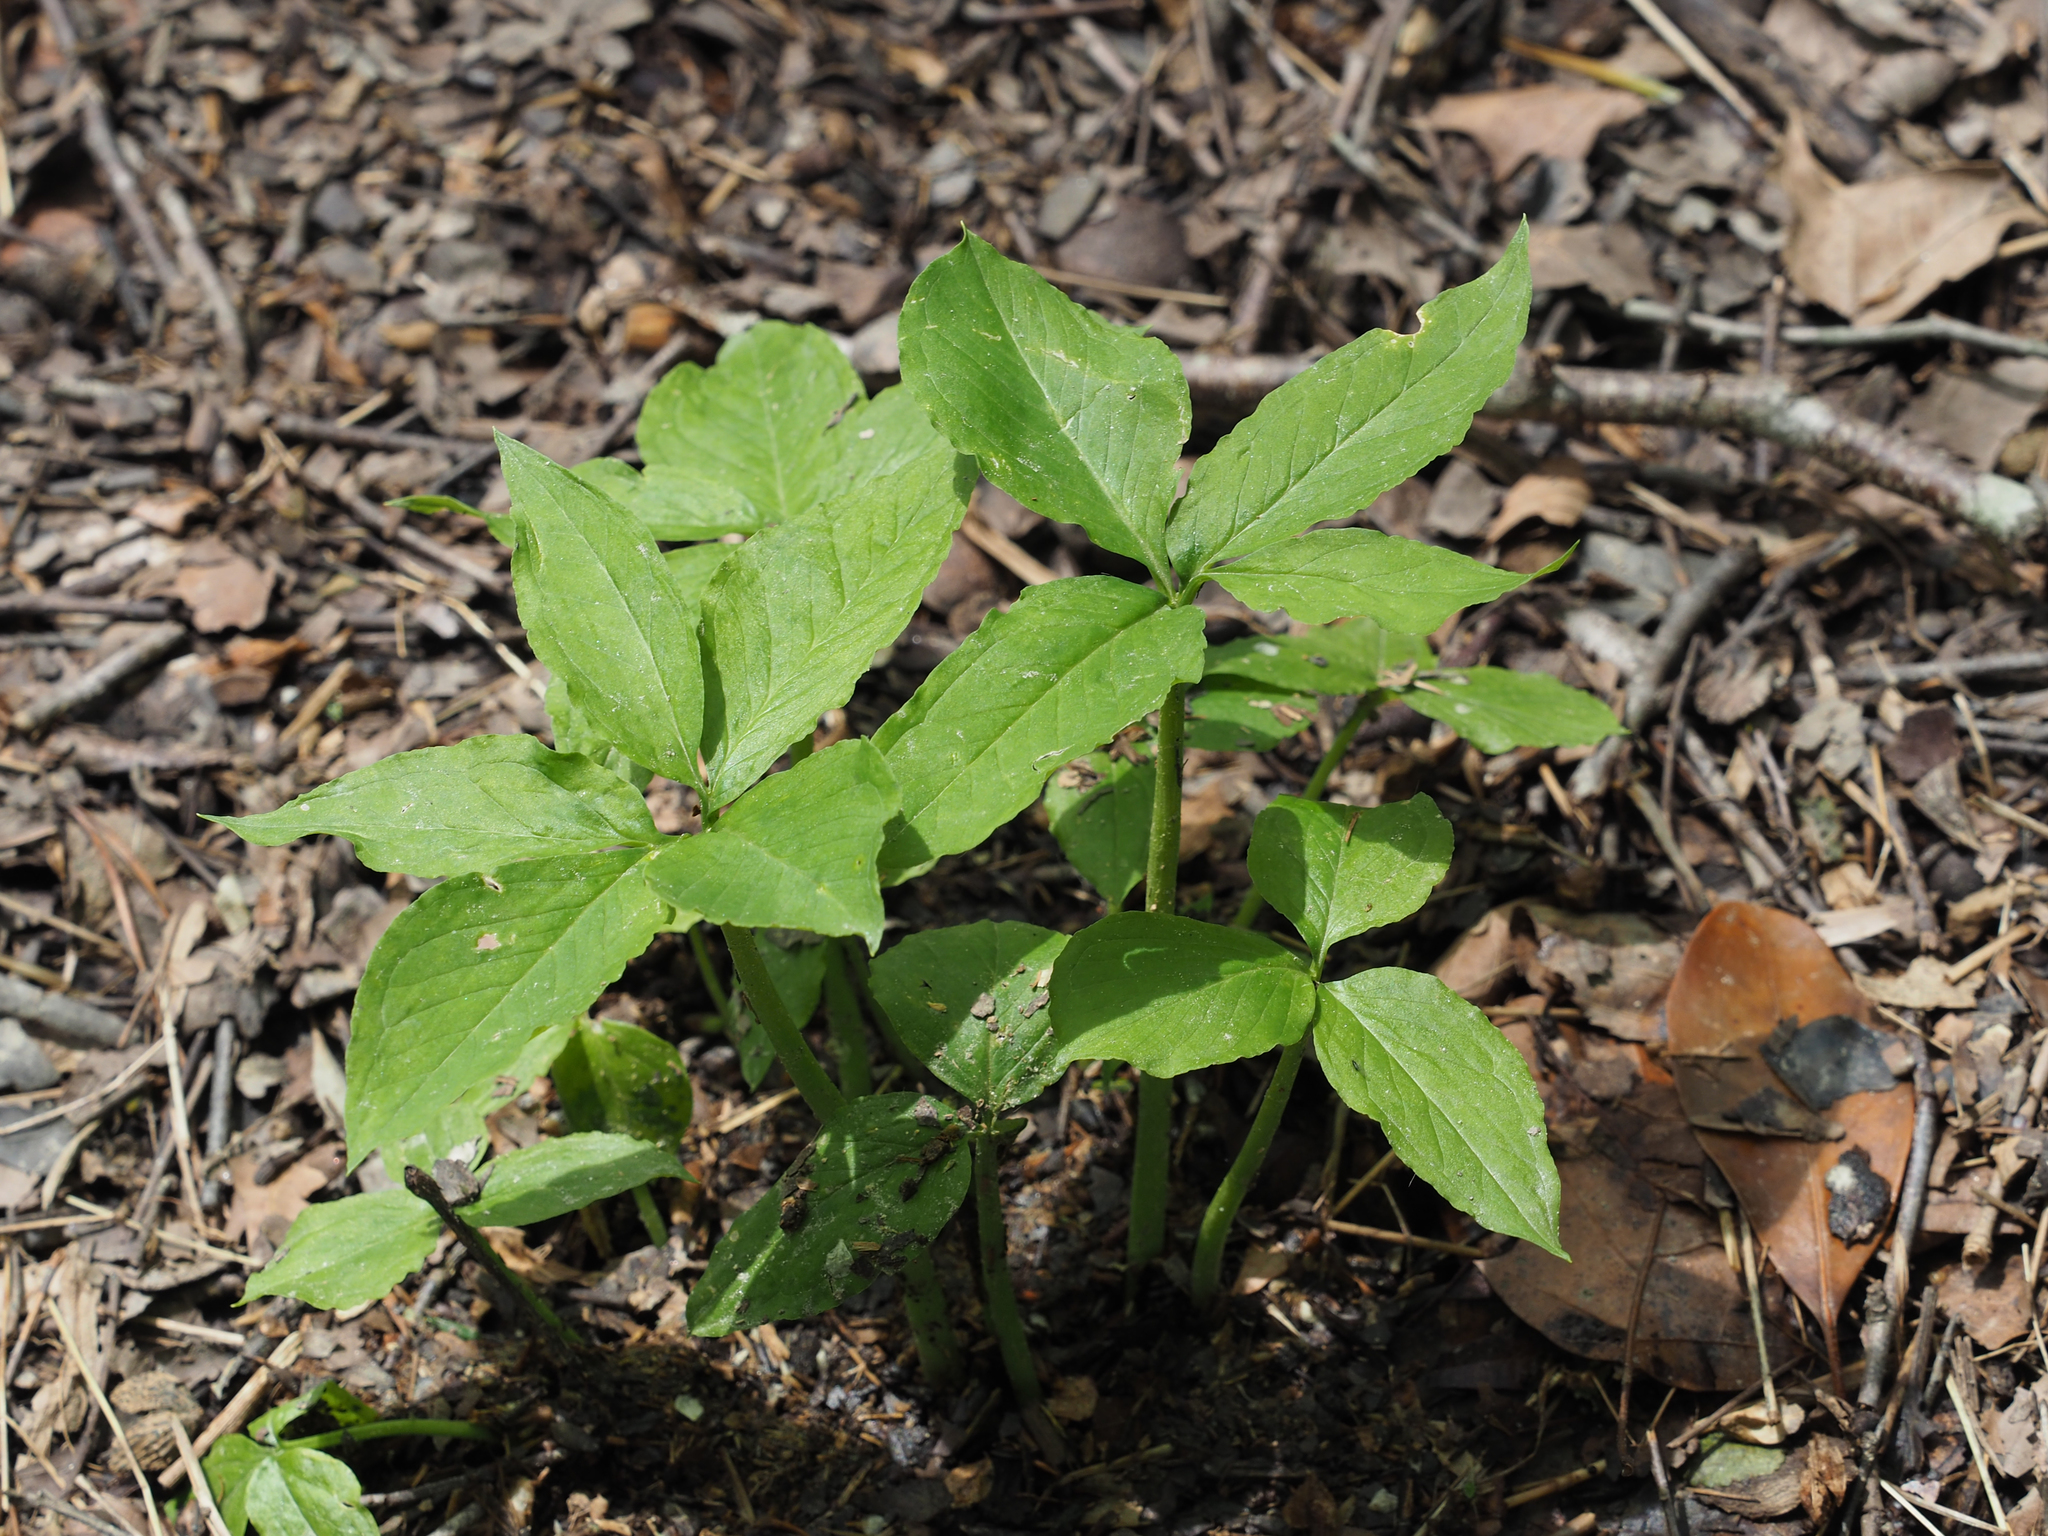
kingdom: Plantae
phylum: Tracheophyta
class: Liliopsida
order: Alismatales
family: Araceae
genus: Arisaema
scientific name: Arisaema dracontium
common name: Dragon-arum
